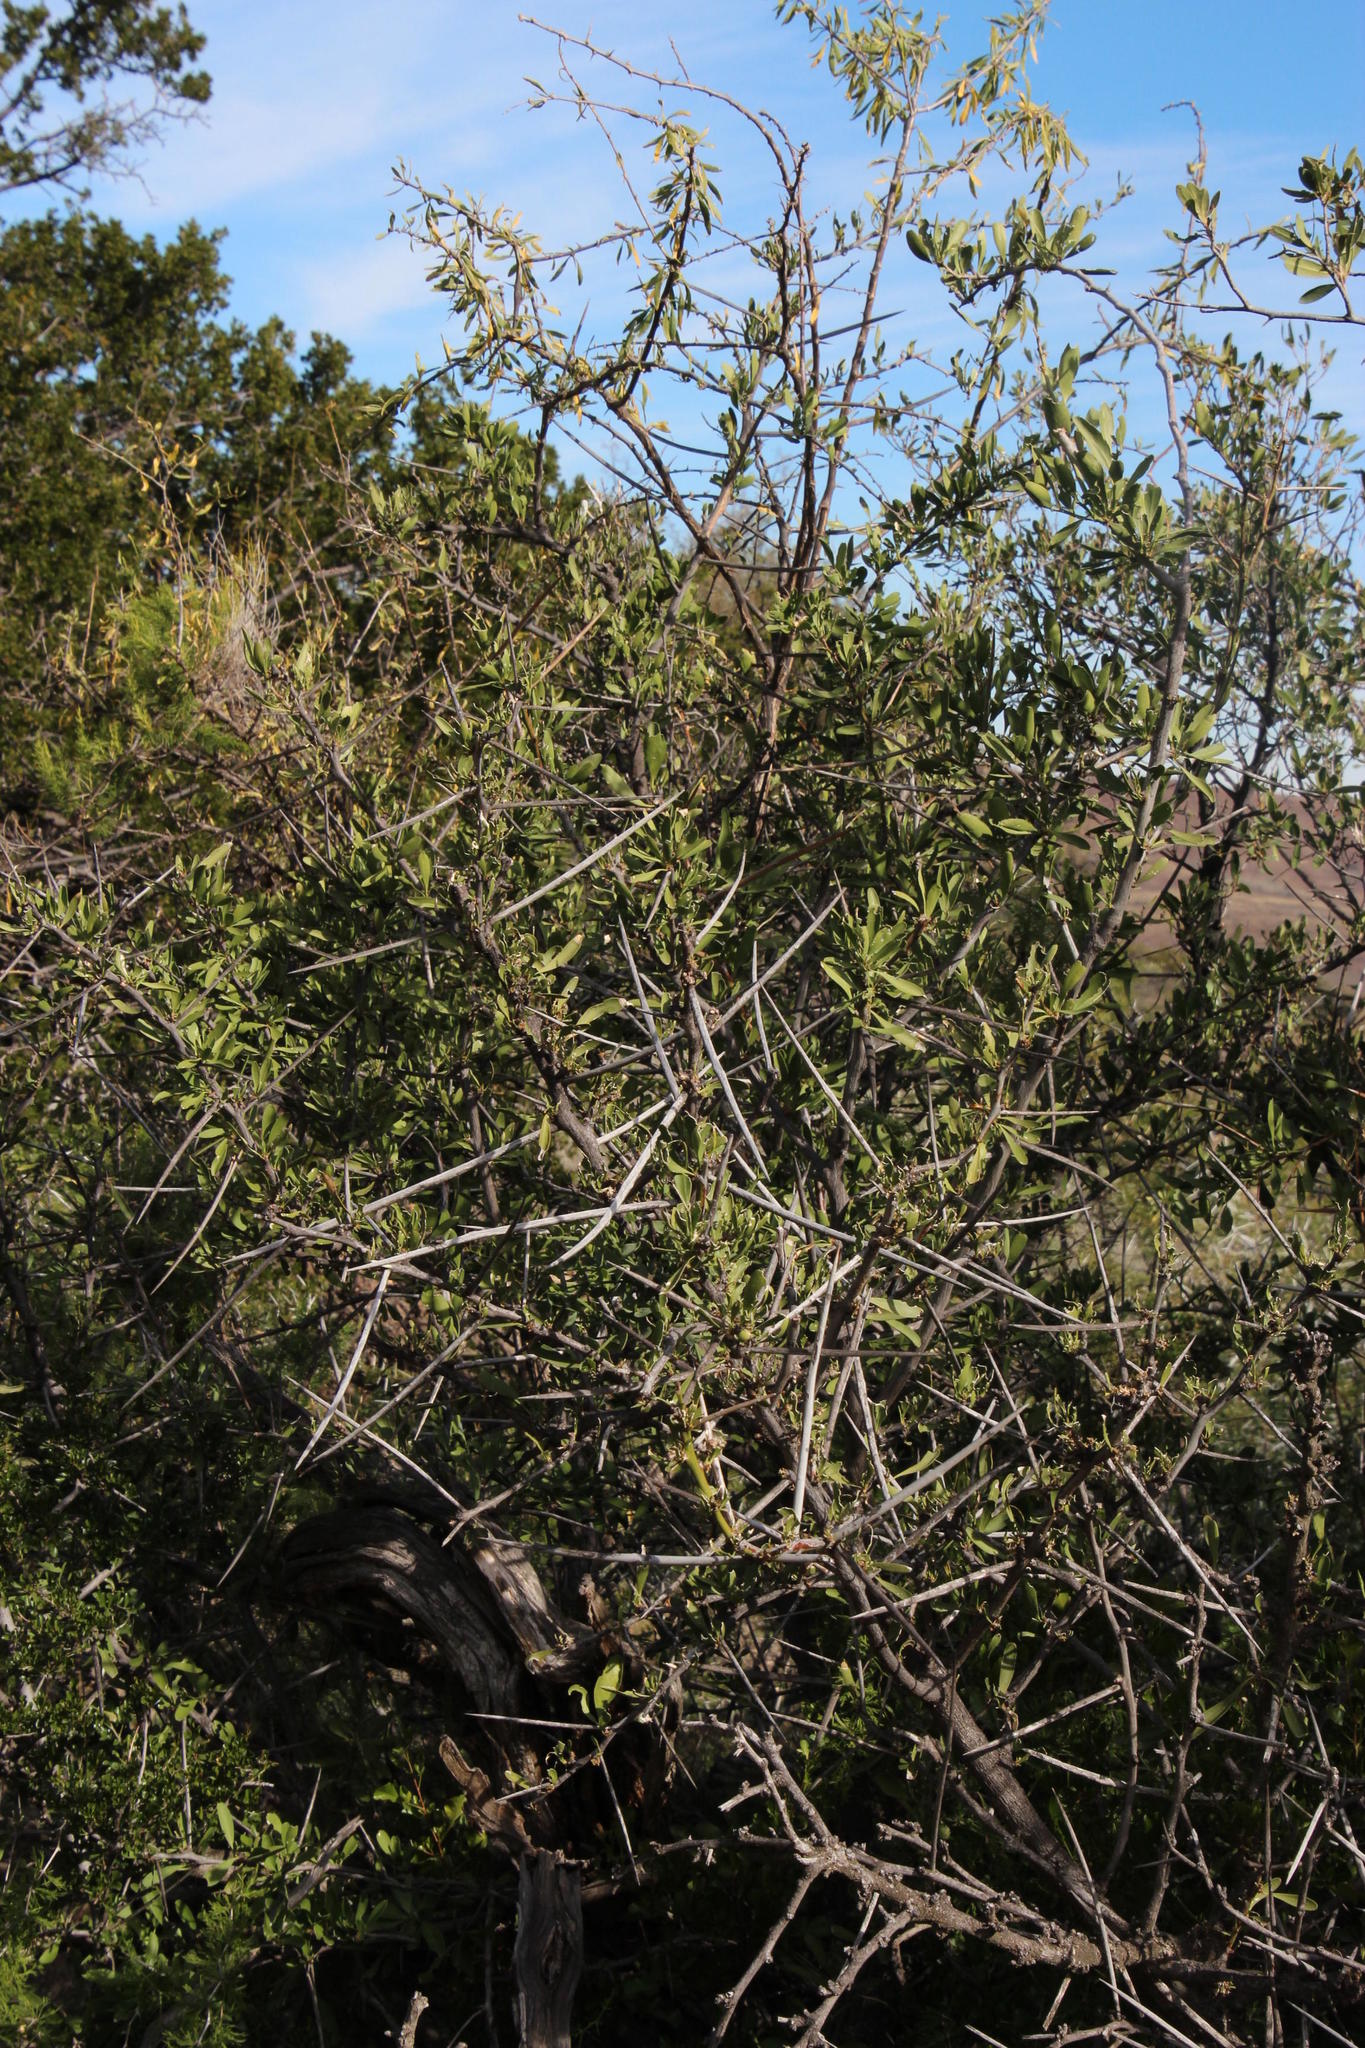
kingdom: Plantae
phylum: Tracheophyta
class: Magnoliopsida
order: Celastrales
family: Celastraceae
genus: Gymnosporia
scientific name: Gymnosporia buxifolia
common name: Common spike-thorn
